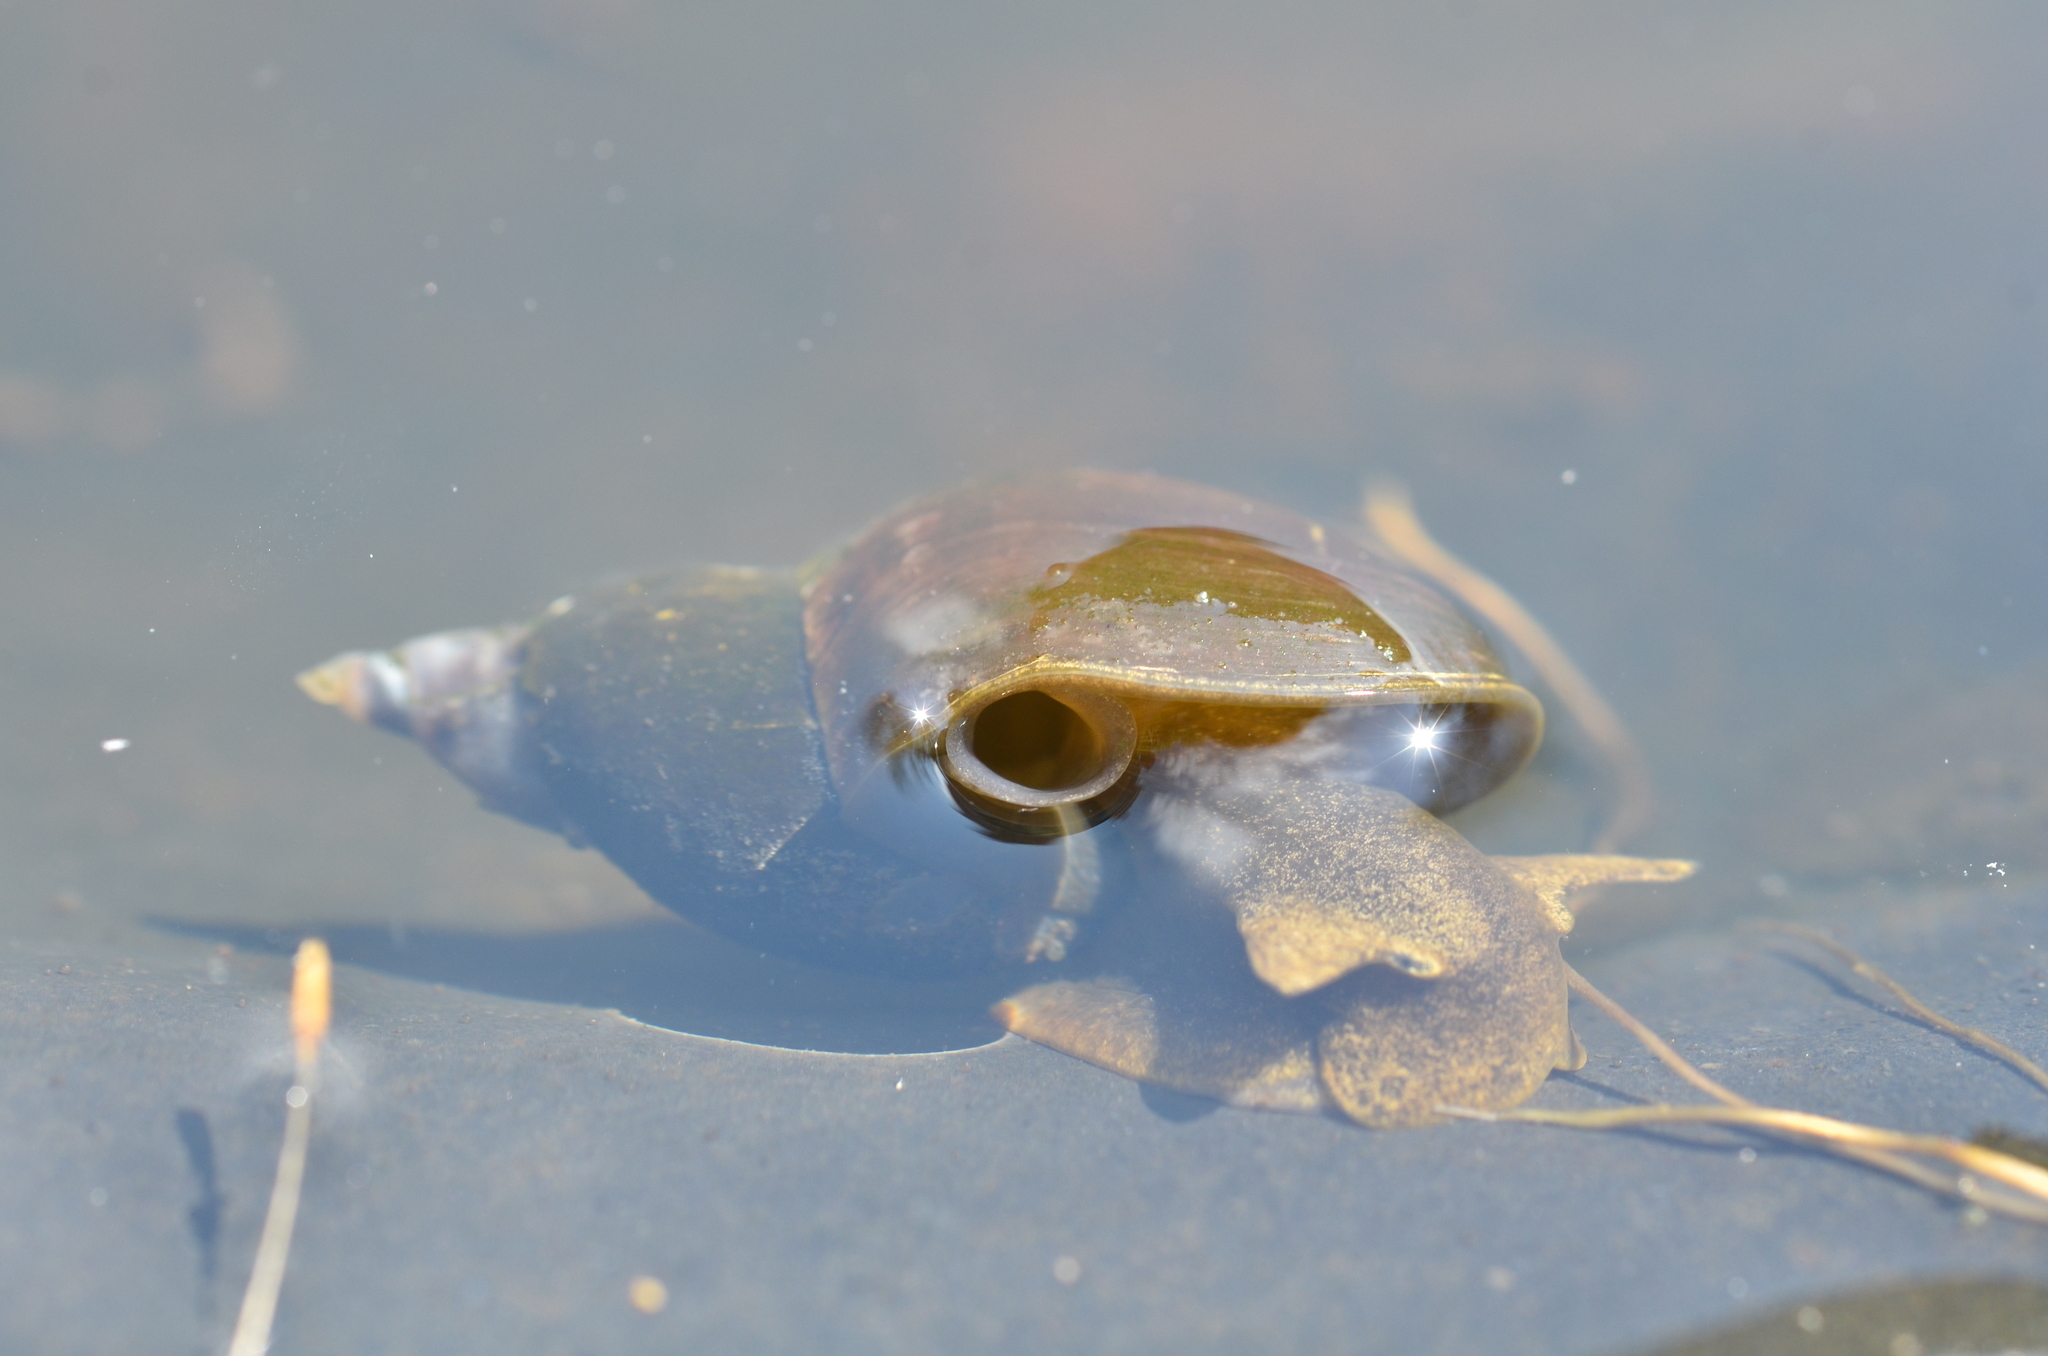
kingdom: Animalia
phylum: Mollusca
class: Gastropoda
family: Lymnaeidae
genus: Lymnaea
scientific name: Lymnaea stagnalis
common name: Great pond snail
